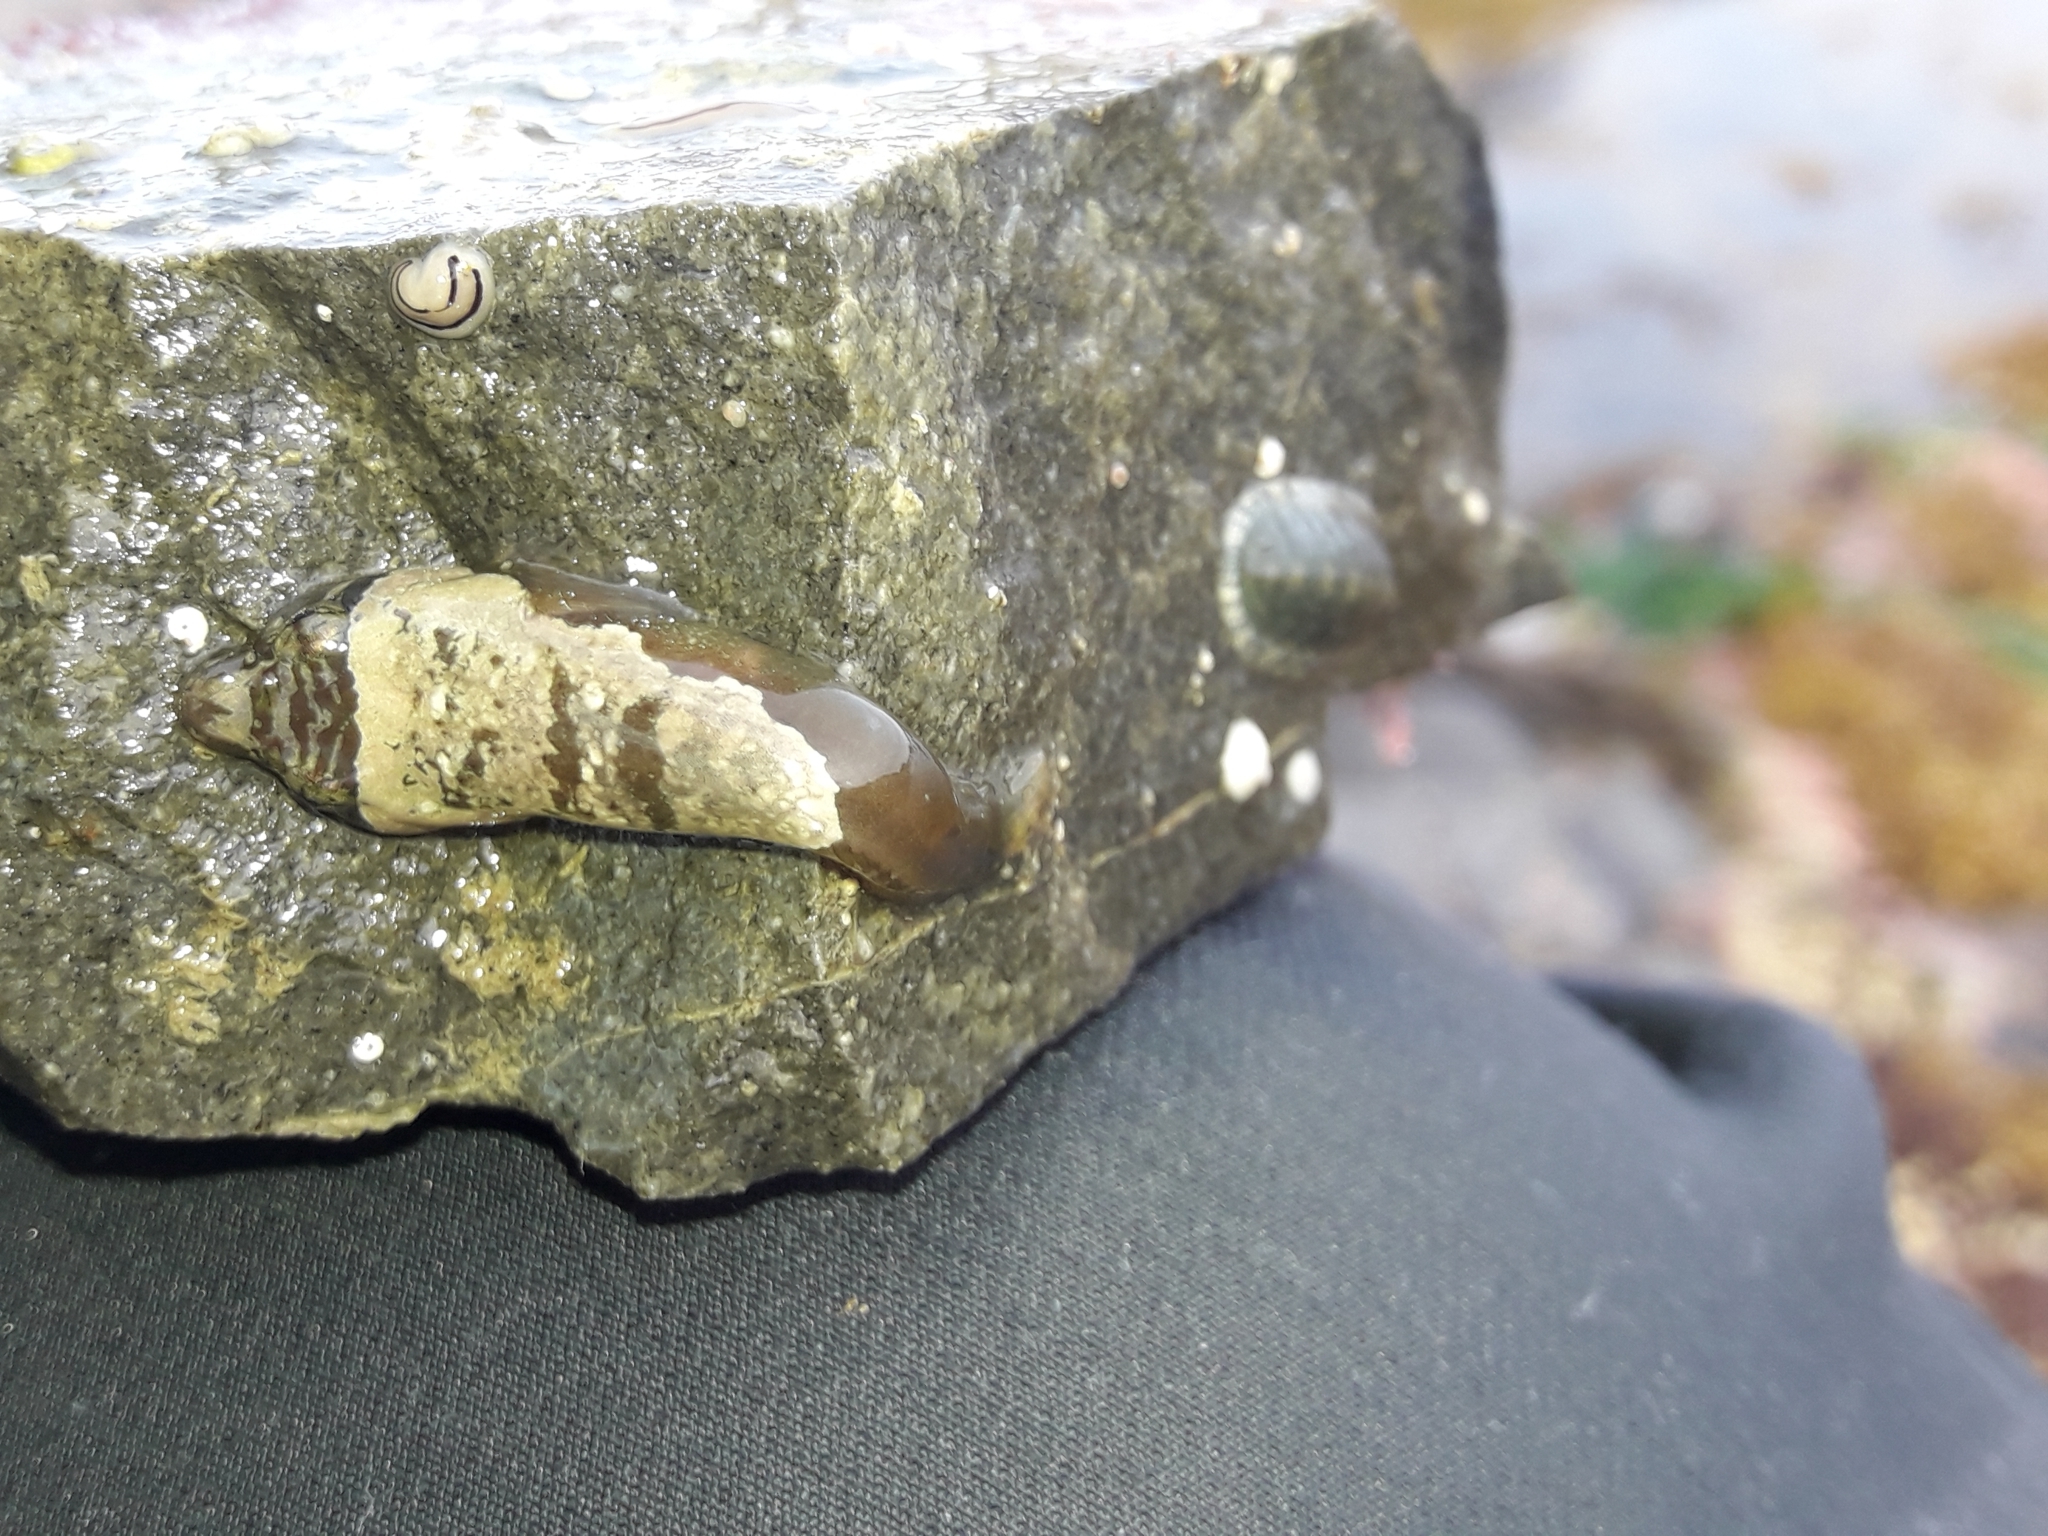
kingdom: Animalia
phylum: Chordata
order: Gobiesociformes
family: Gobiesocidae
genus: Trachelochismus
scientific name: Trachelochismus melobesia
